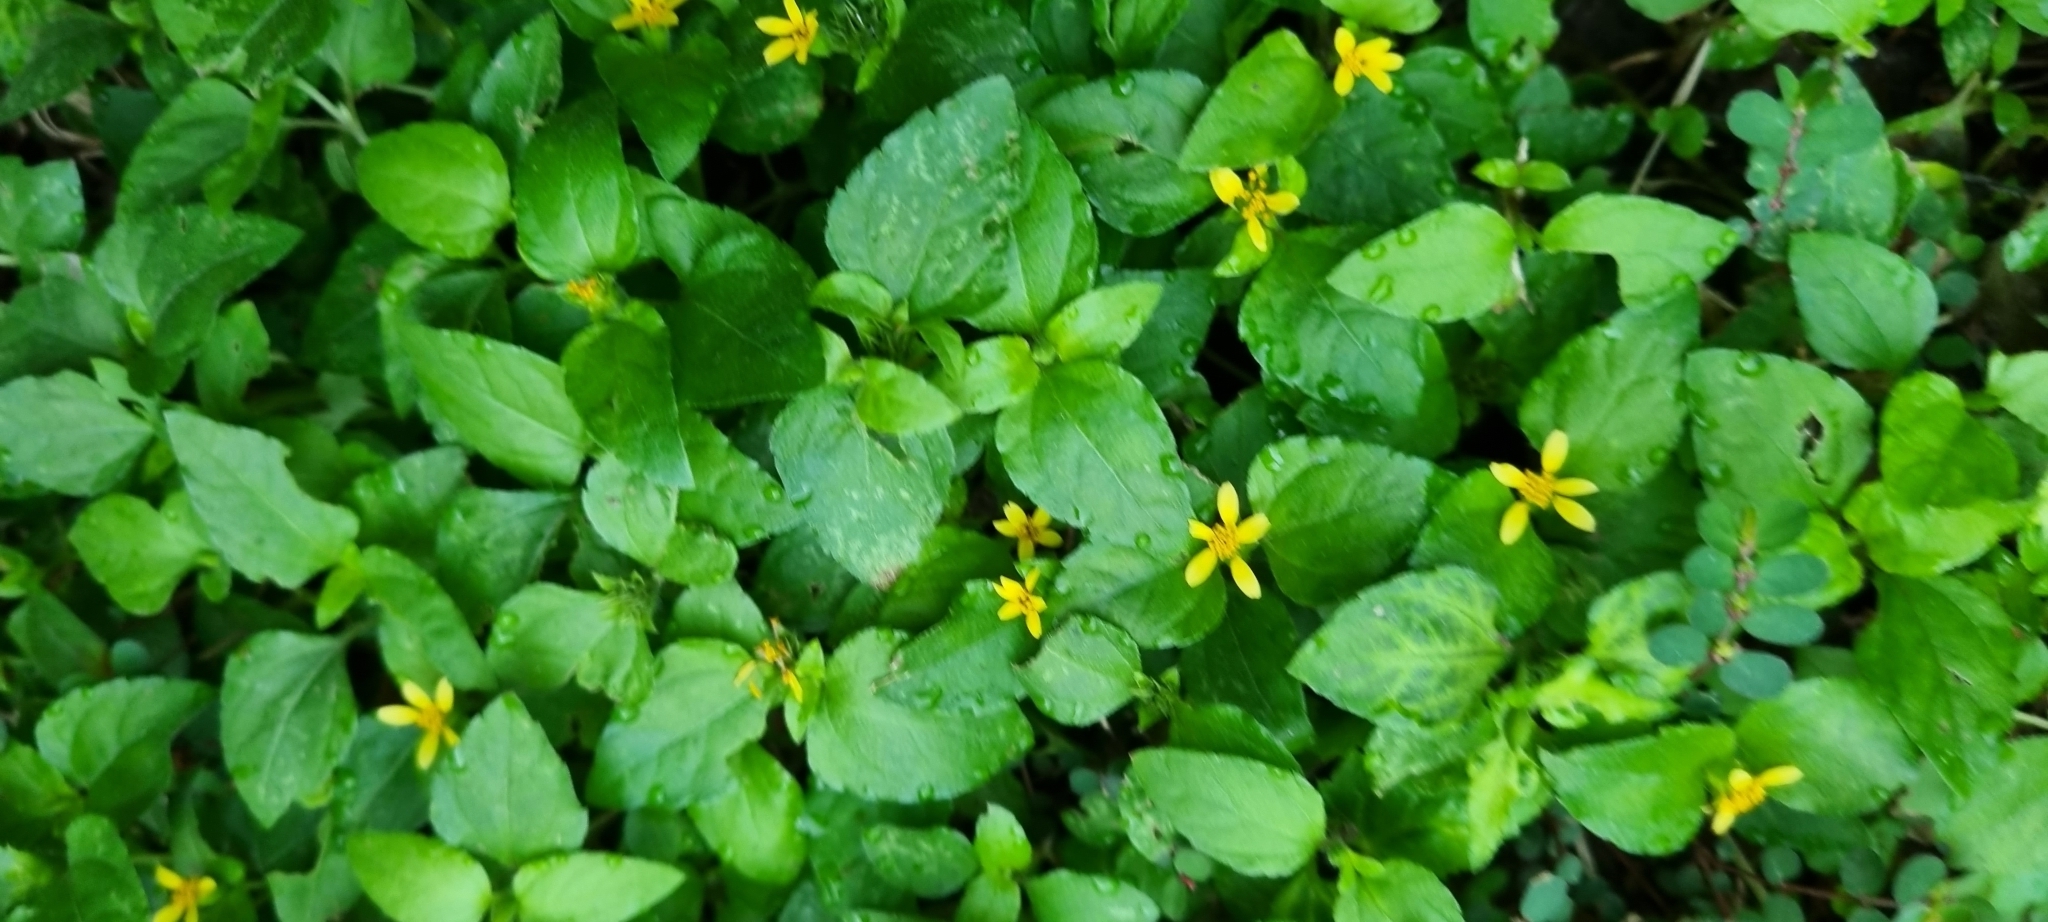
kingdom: Plantae
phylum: Tracheophyta
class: Magnoliopsida
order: Asterales
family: Asteraceae
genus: Calyptocarpus
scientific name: Calyptocarpus vialis
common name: Straggler daisy
